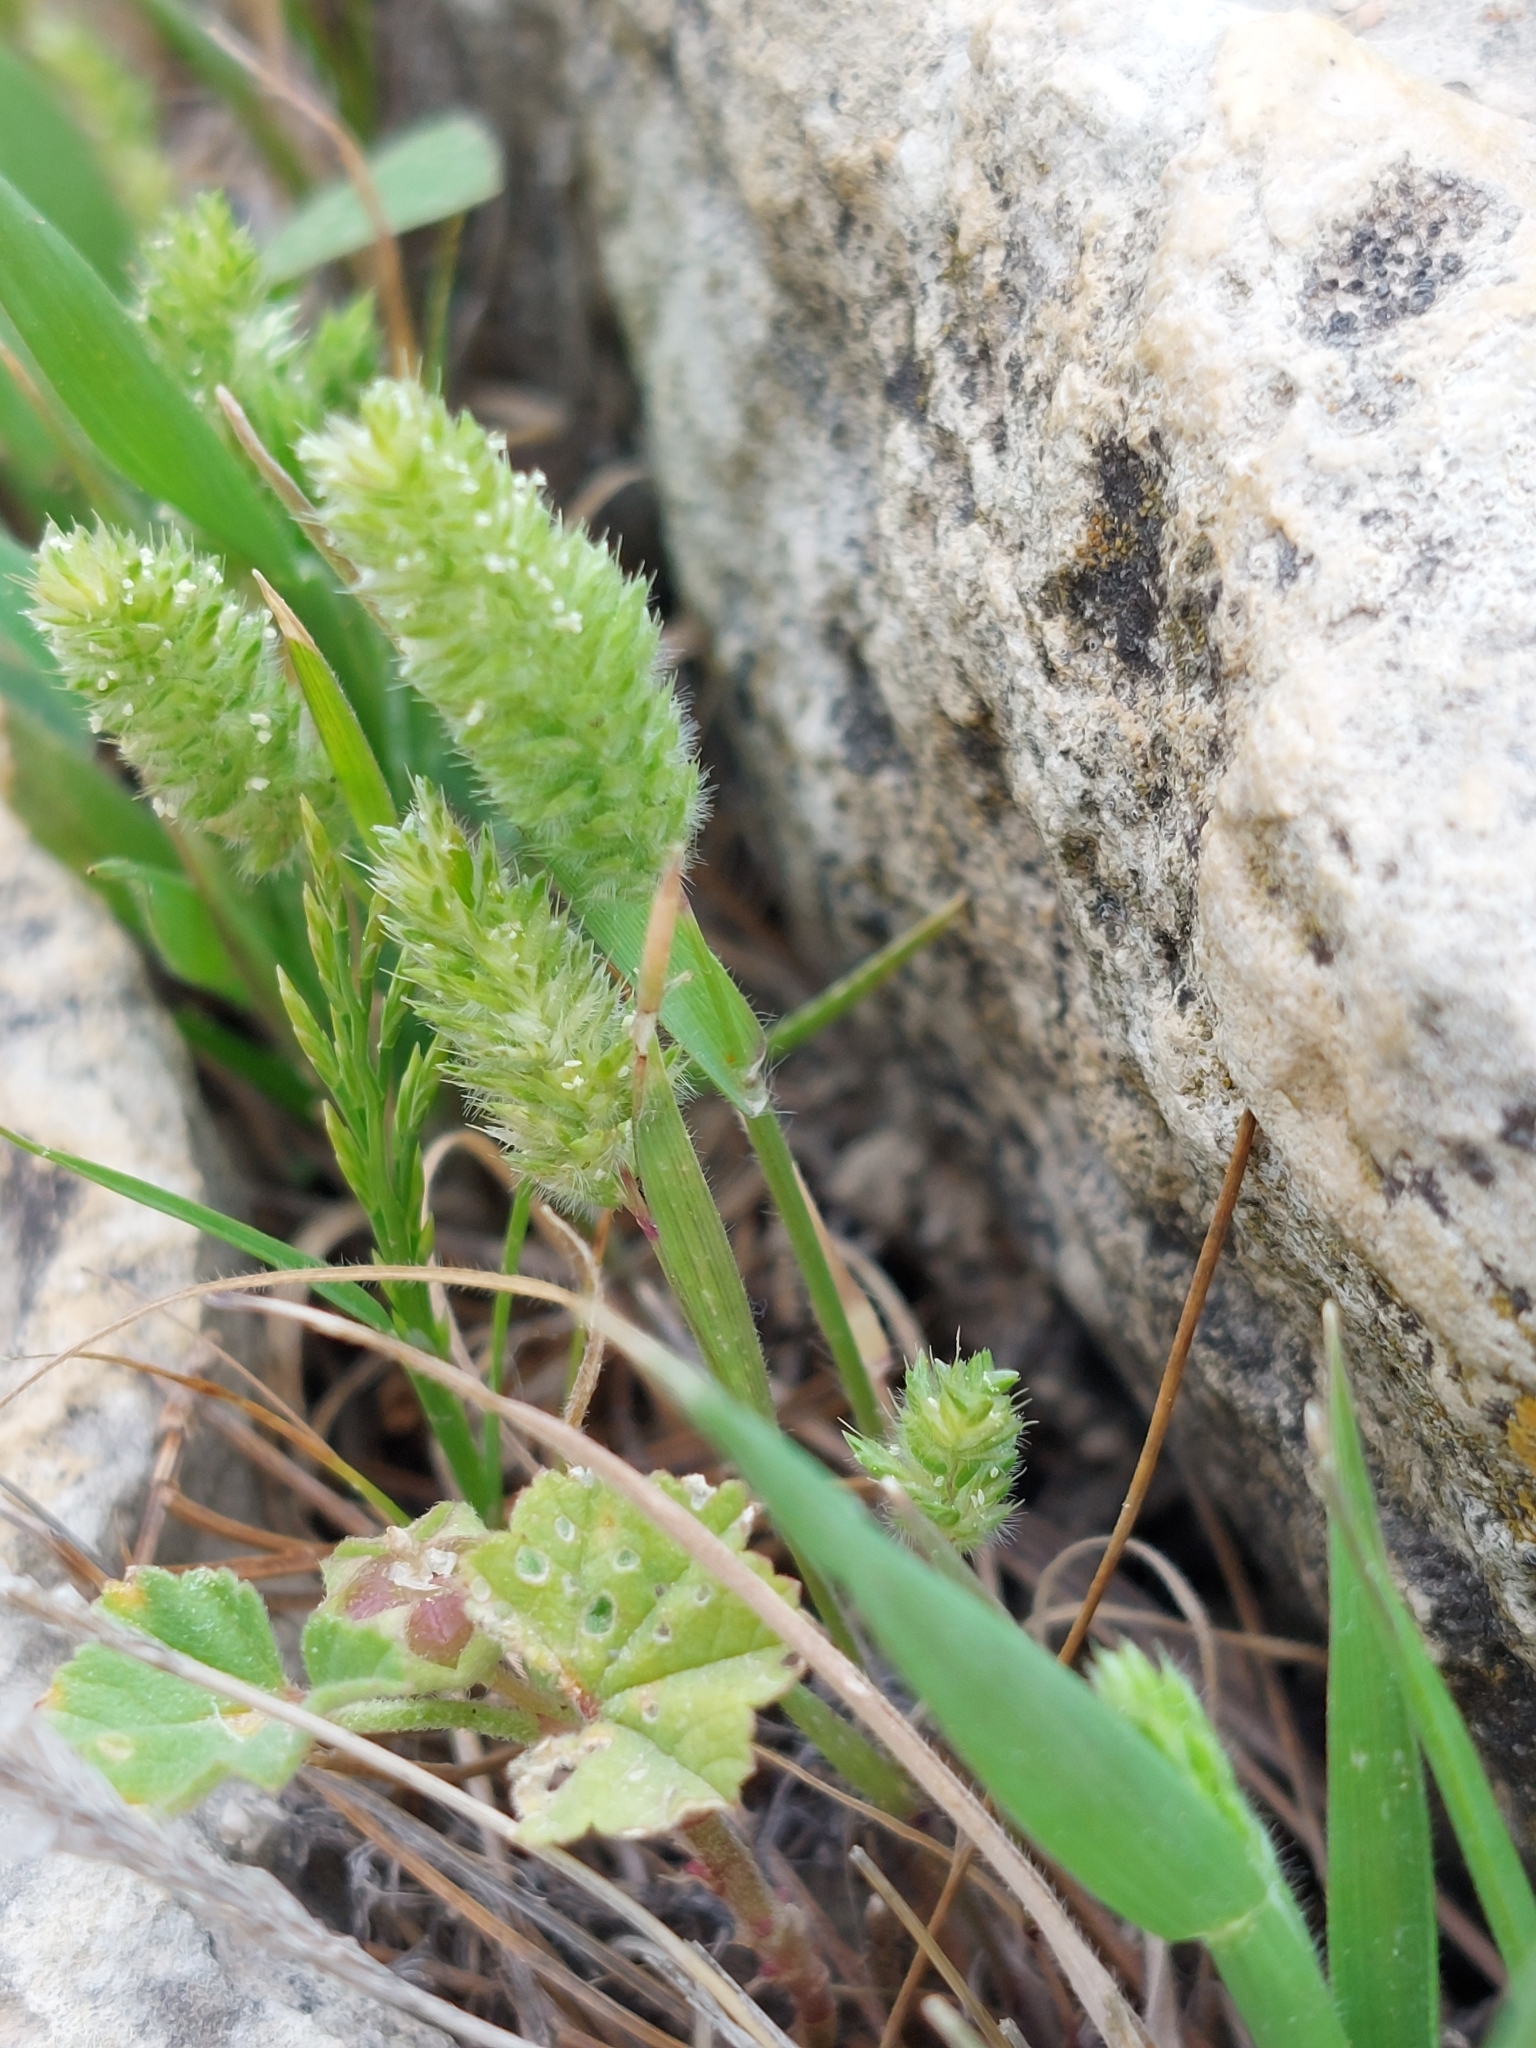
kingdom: Plantae
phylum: Tracheophyta
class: Liliopsida
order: Poales
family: Poaceae
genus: Rostraria
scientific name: Rostraria cristata
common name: Mediterranean hair-grass
